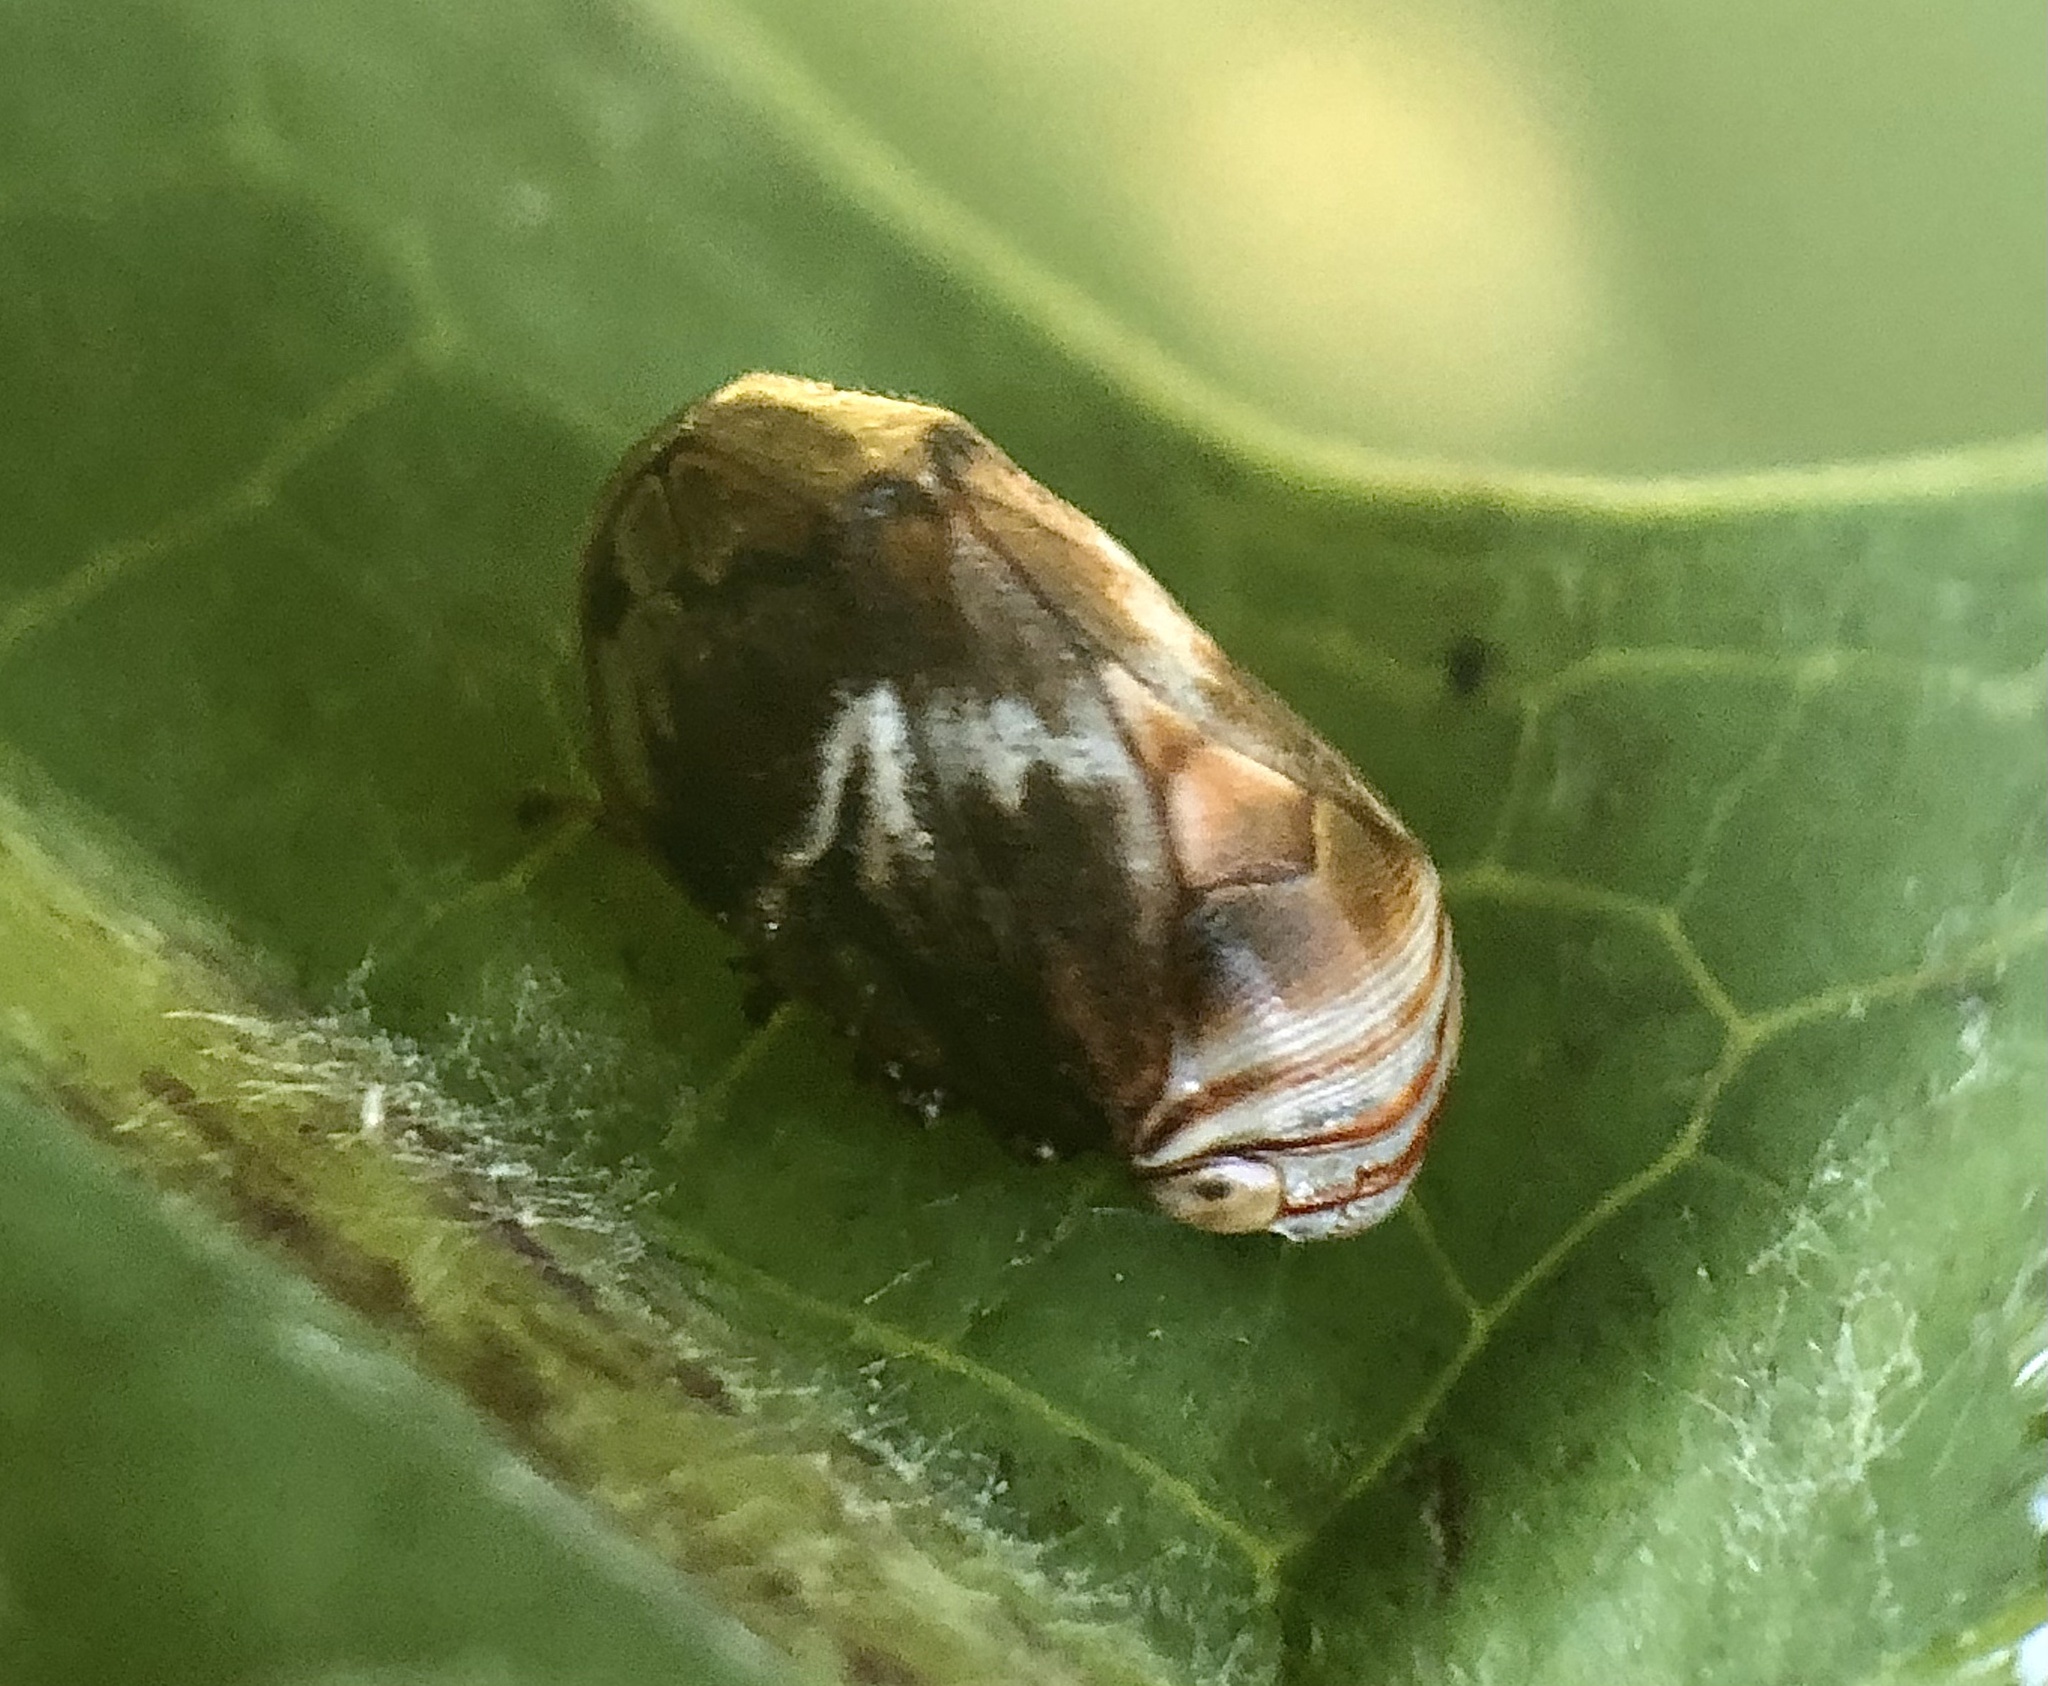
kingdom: Animalia
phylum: Arthropoda
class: Insecta
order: Hemiptera
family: Clastopteridae
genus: Clastoptera
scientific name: Clastoptera obtusa
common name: Alder spittlebug
